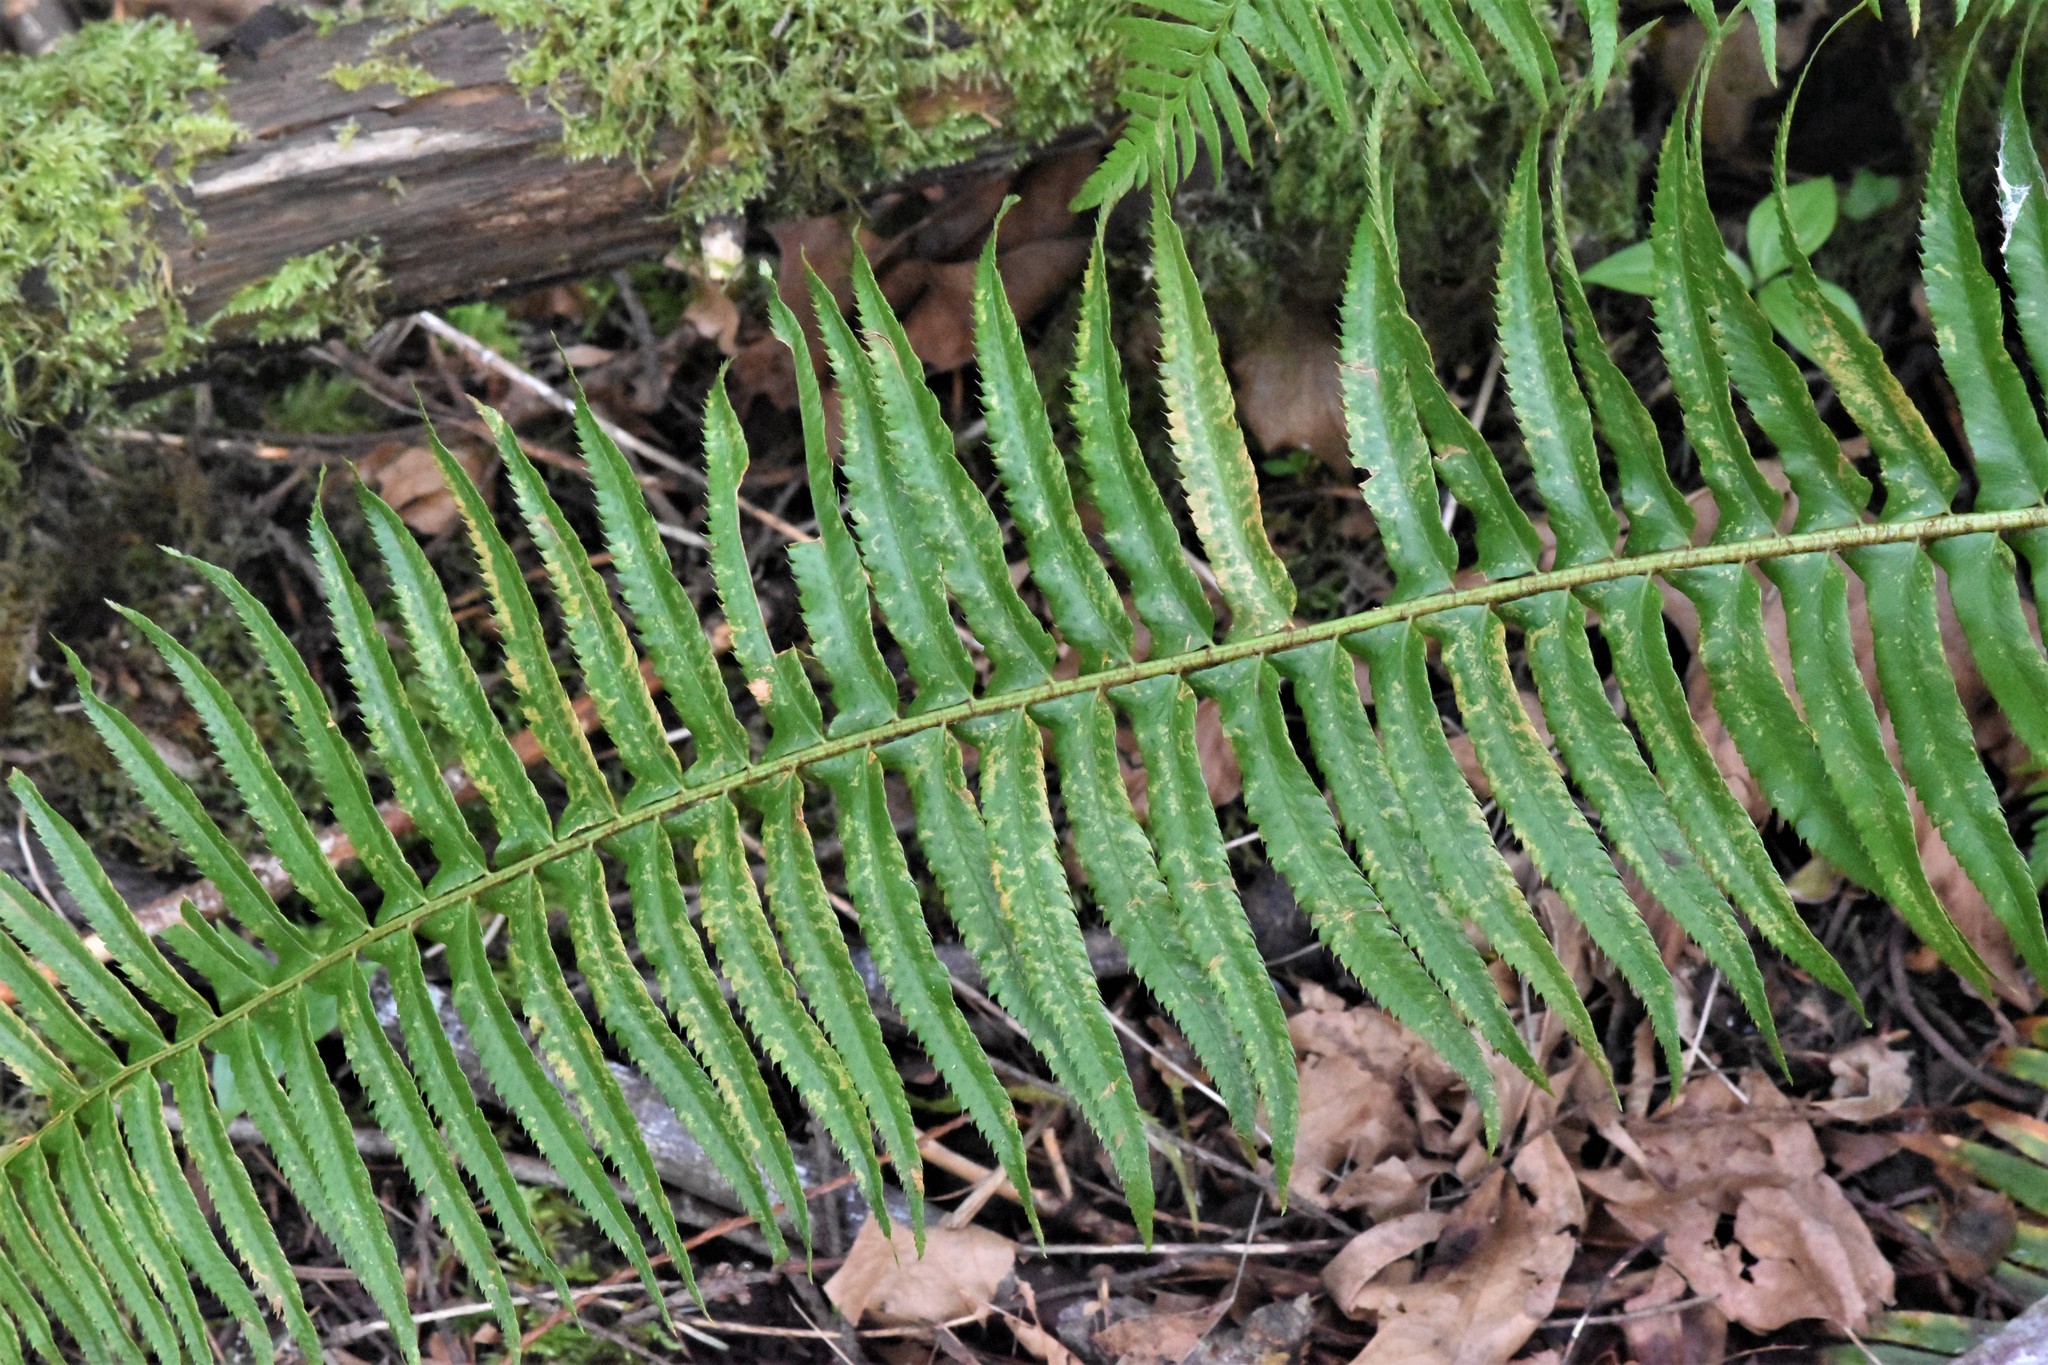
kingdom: Plantae
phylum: Tracheophyta
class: Polypodiopsida
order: Polypodiales
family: Dryopteridaceae
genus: Polystichum
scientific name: Polystichum munitum
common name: Western sword-fern
